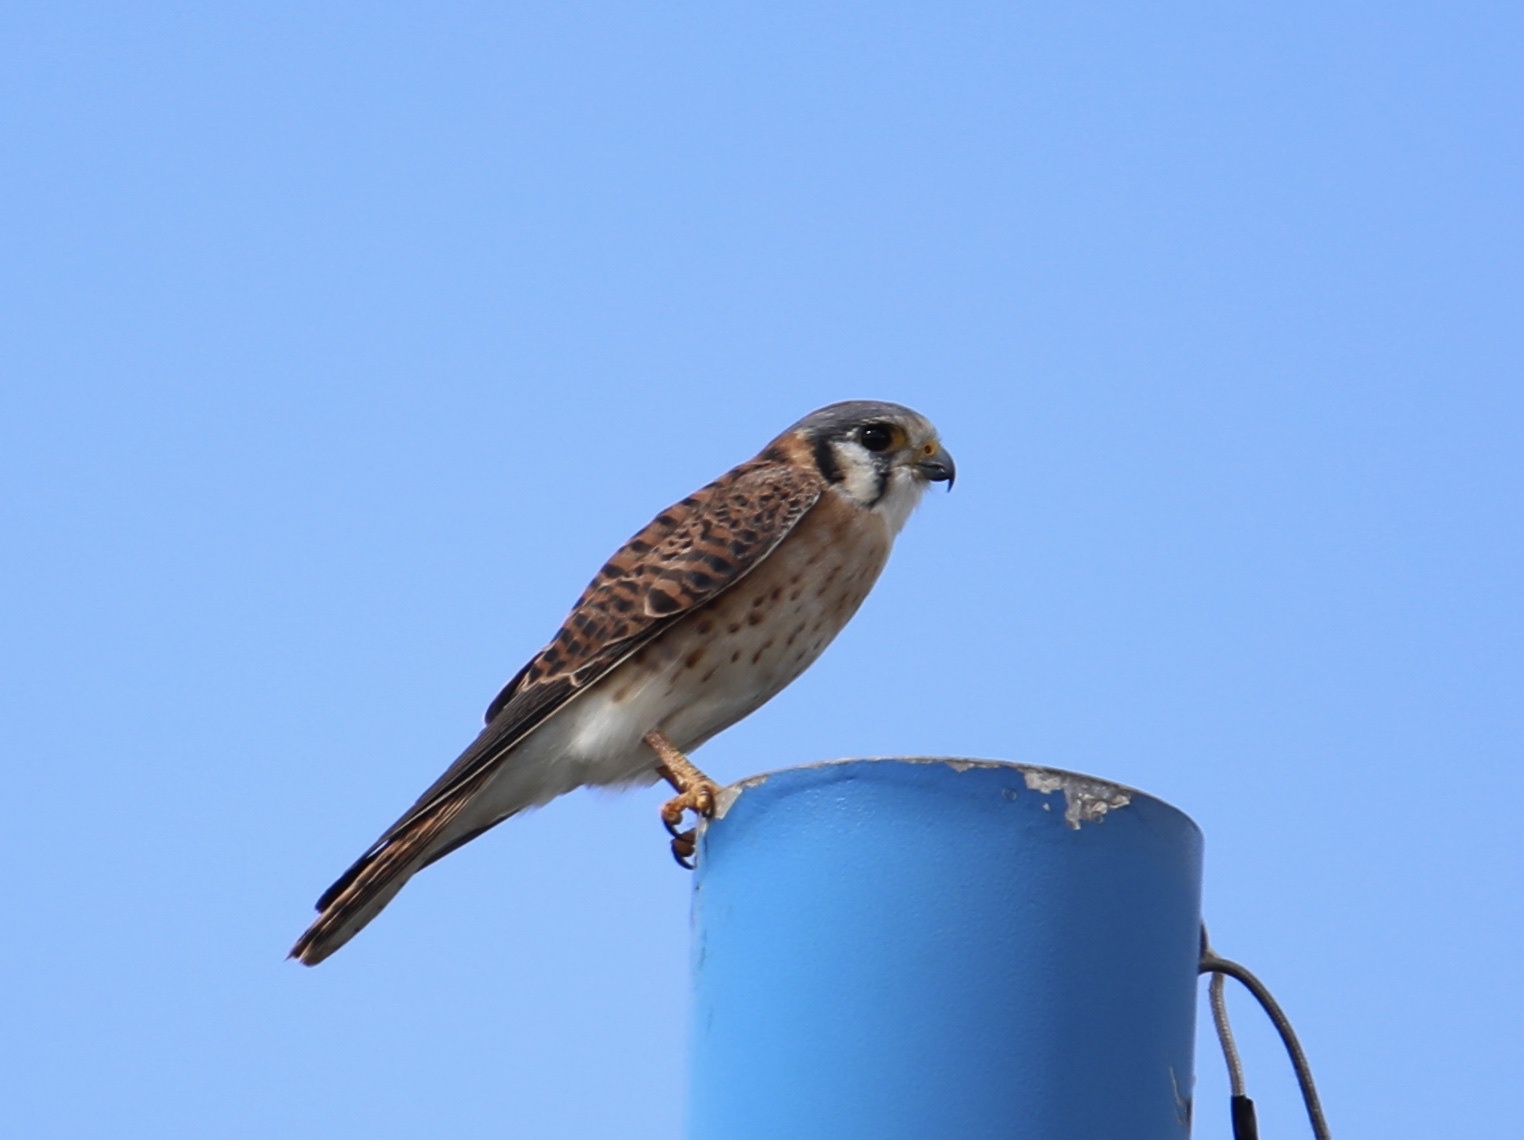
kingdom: Animalia
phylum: Chordata
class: Aves
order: Falconiformes
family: Falconidae
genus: Falco
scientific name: Falco sparverius
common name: American kestrel
